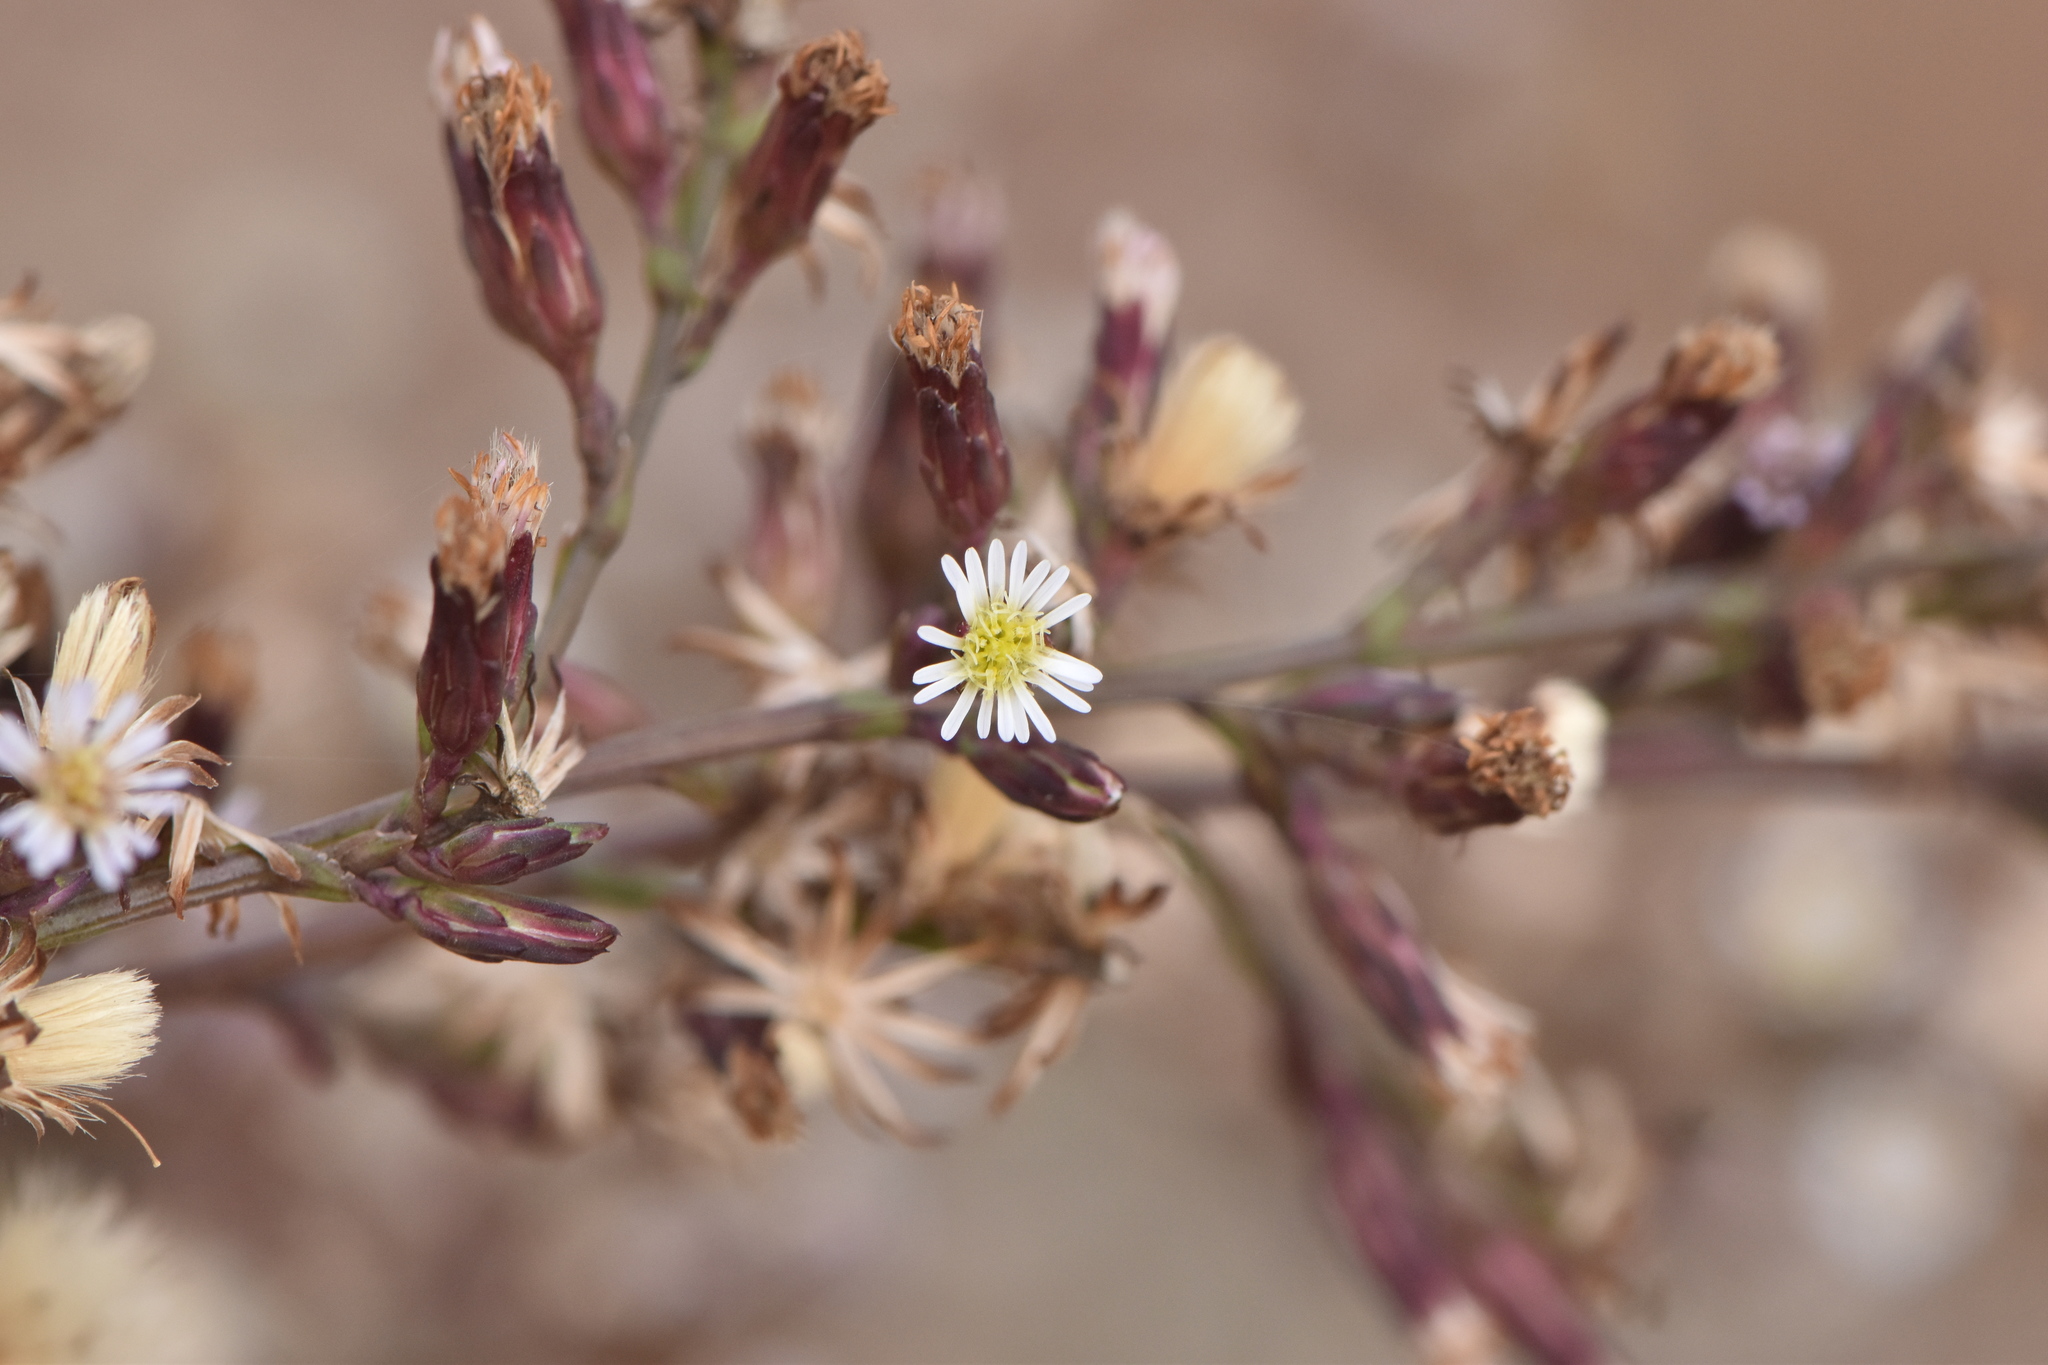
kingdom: Plantae
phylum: Tracheophyta
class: Magnoliopsida
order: Asterales
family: Asteraceae
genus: Symphyotrichum
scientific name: Symphyotrichum squamatum
